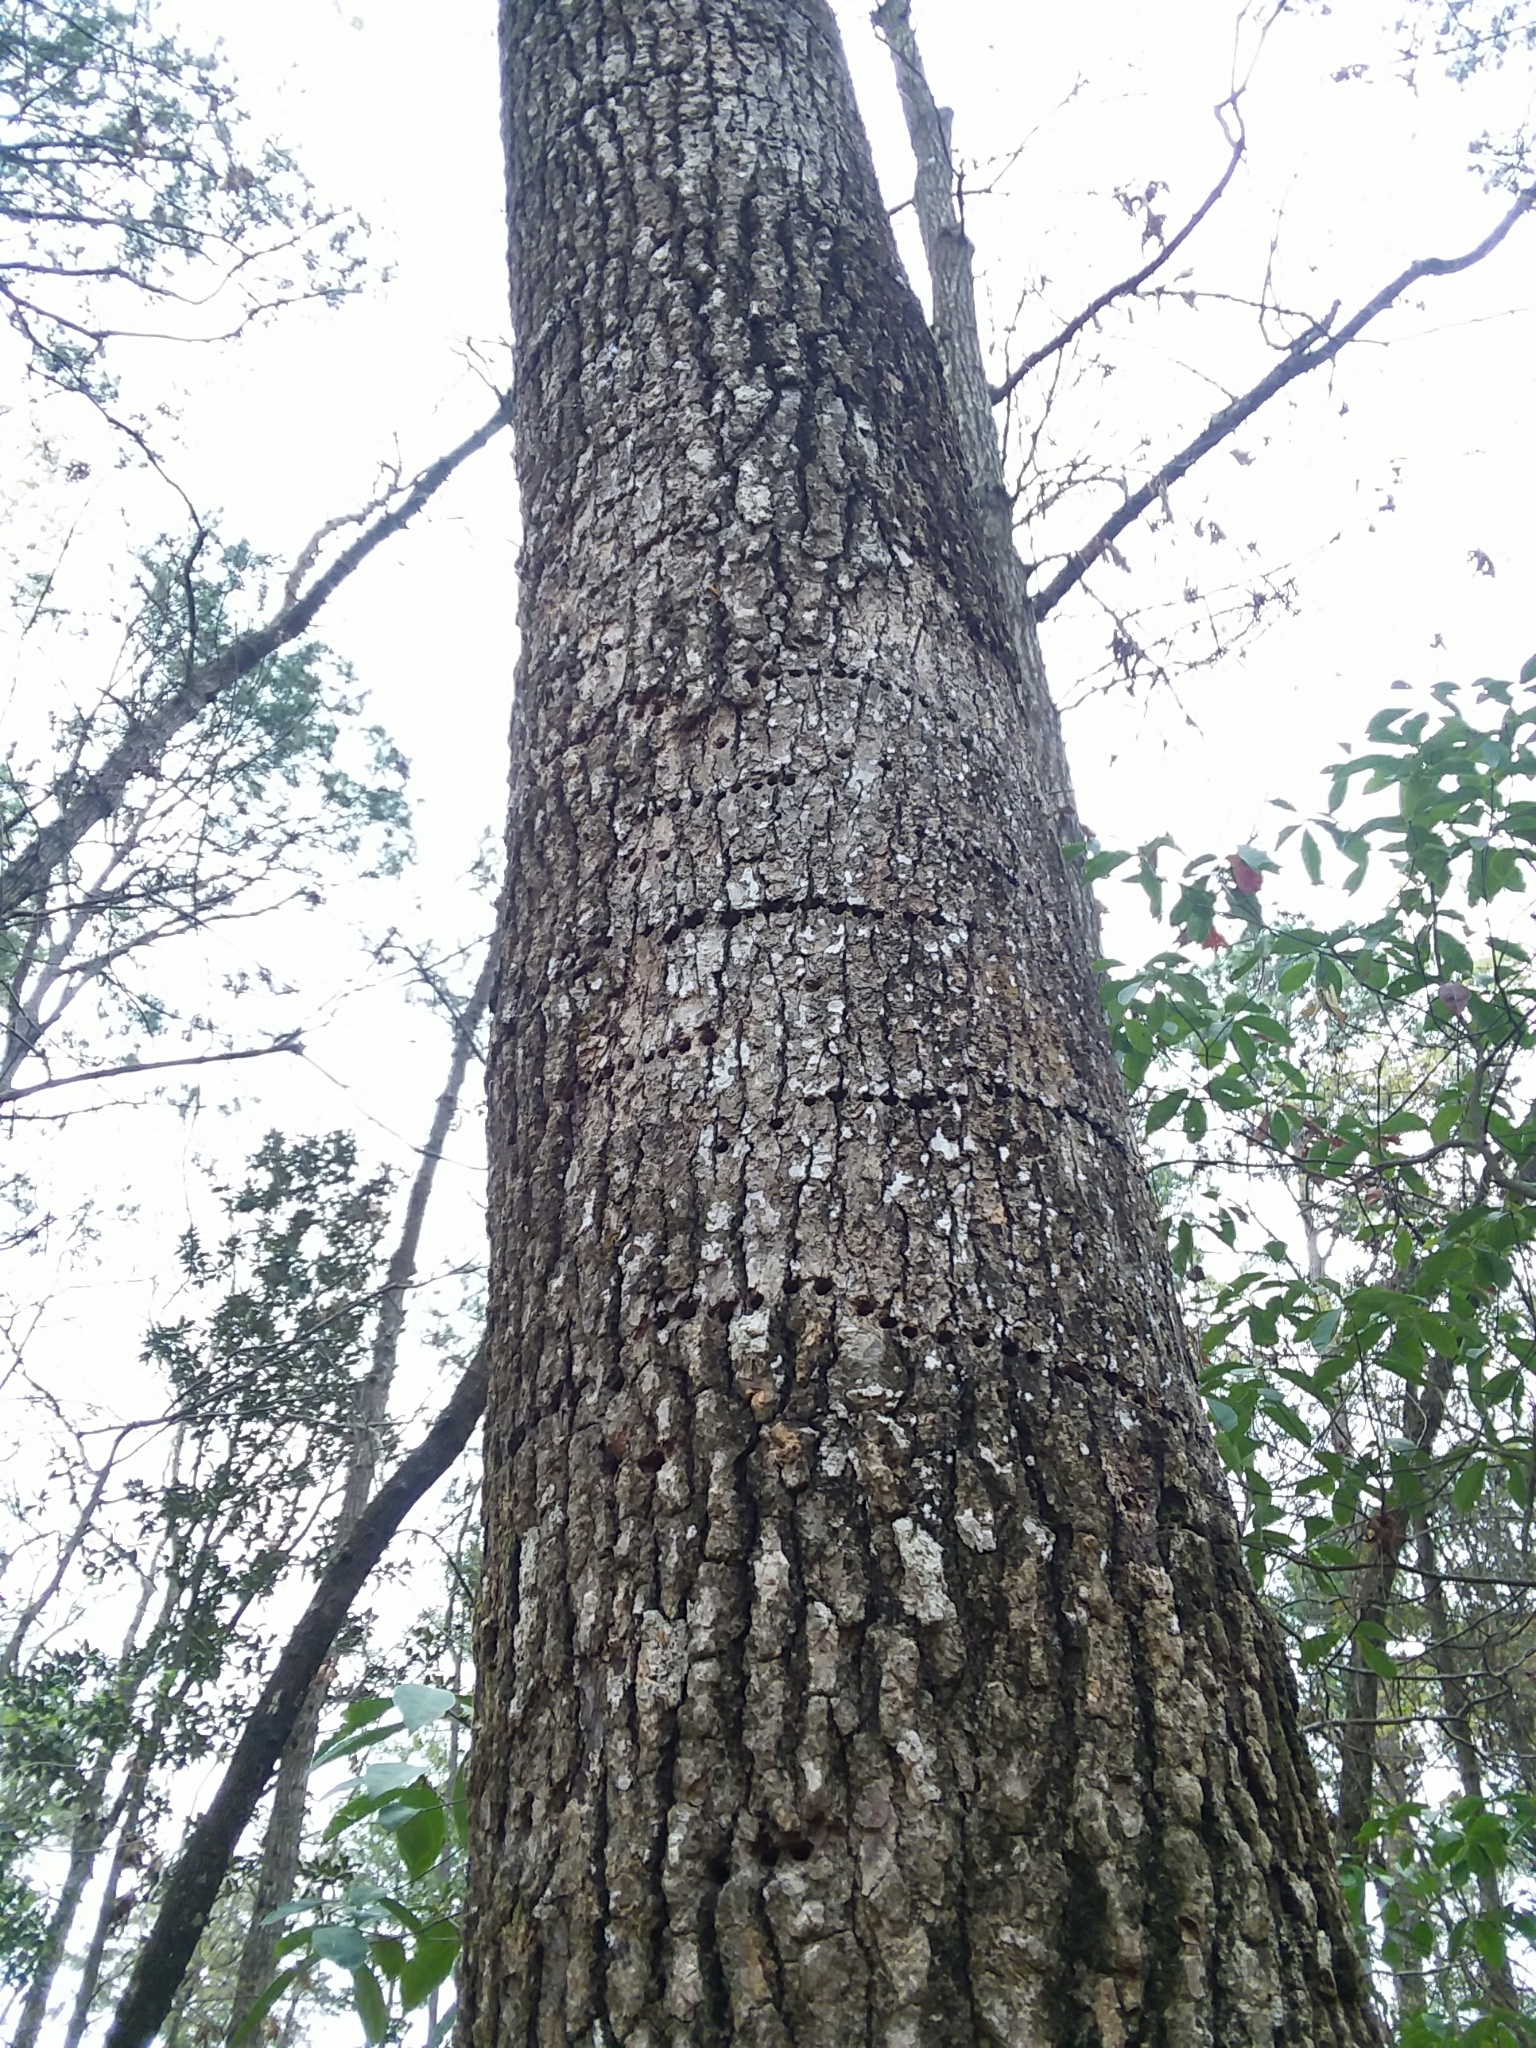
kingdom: Animalia
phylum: Chordata
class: Aves
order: Piciformes
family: Picidae
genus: Sphyrapicus
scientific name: Sphyrapicus varius
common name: Yellow-bellied sapsucker
